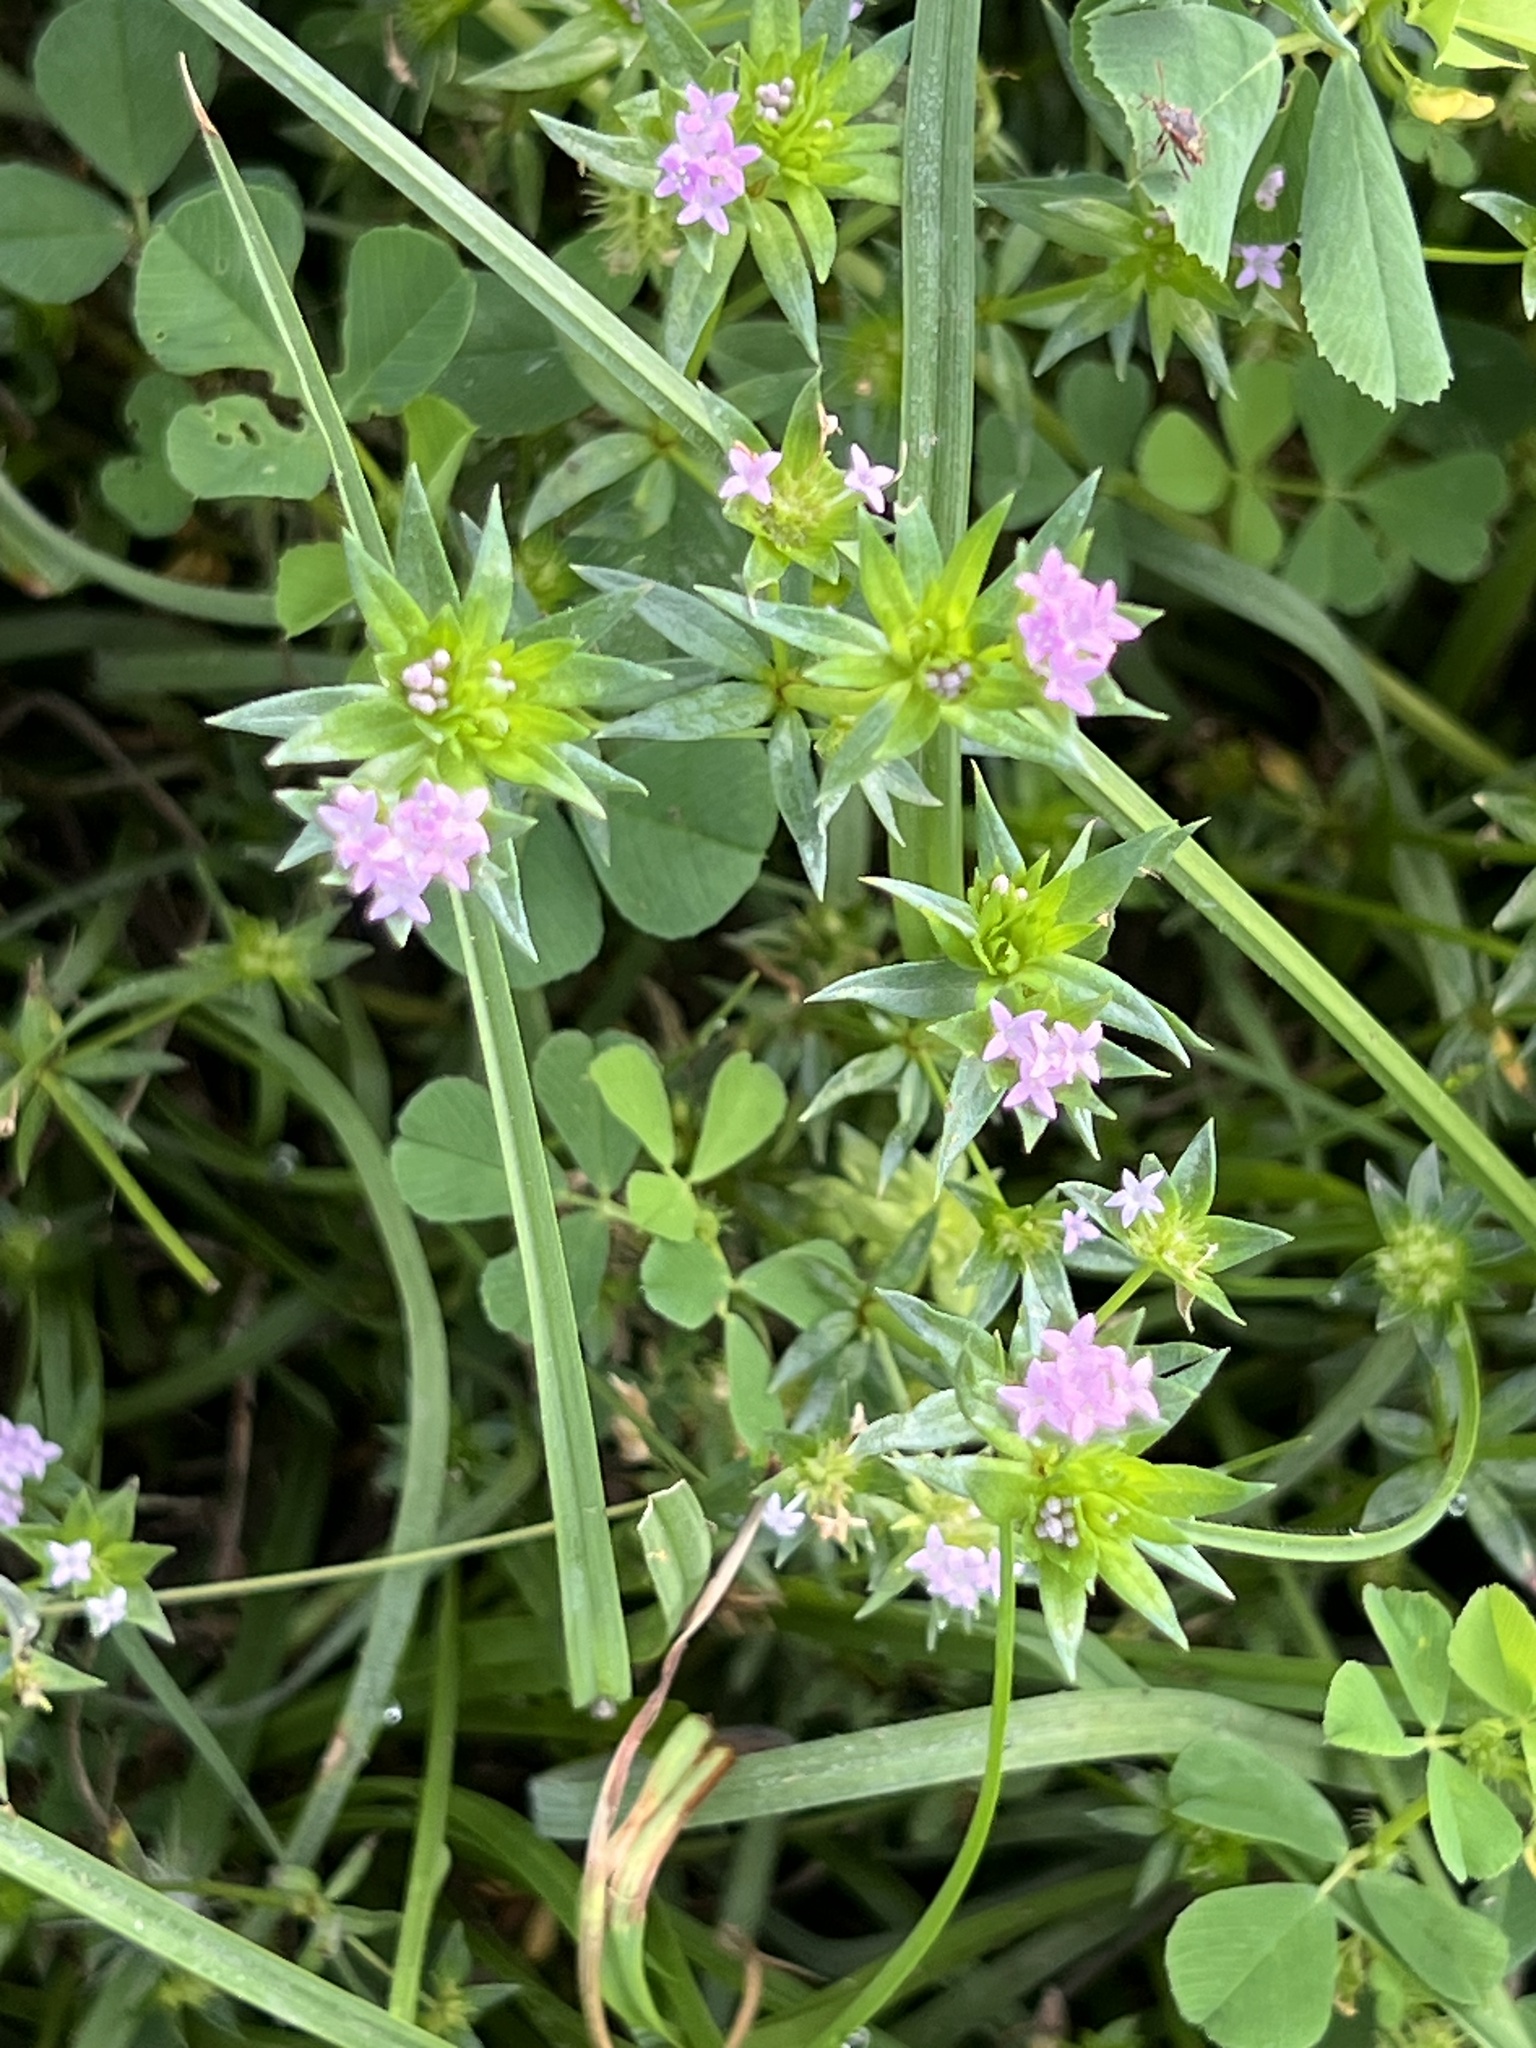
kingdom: Plantae
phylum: Tracheophyta
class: Magnoliopsida
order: Gentianales
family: Rubiaceae
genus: Sherardia
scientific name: Sherardia arvensis
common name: Field madder
